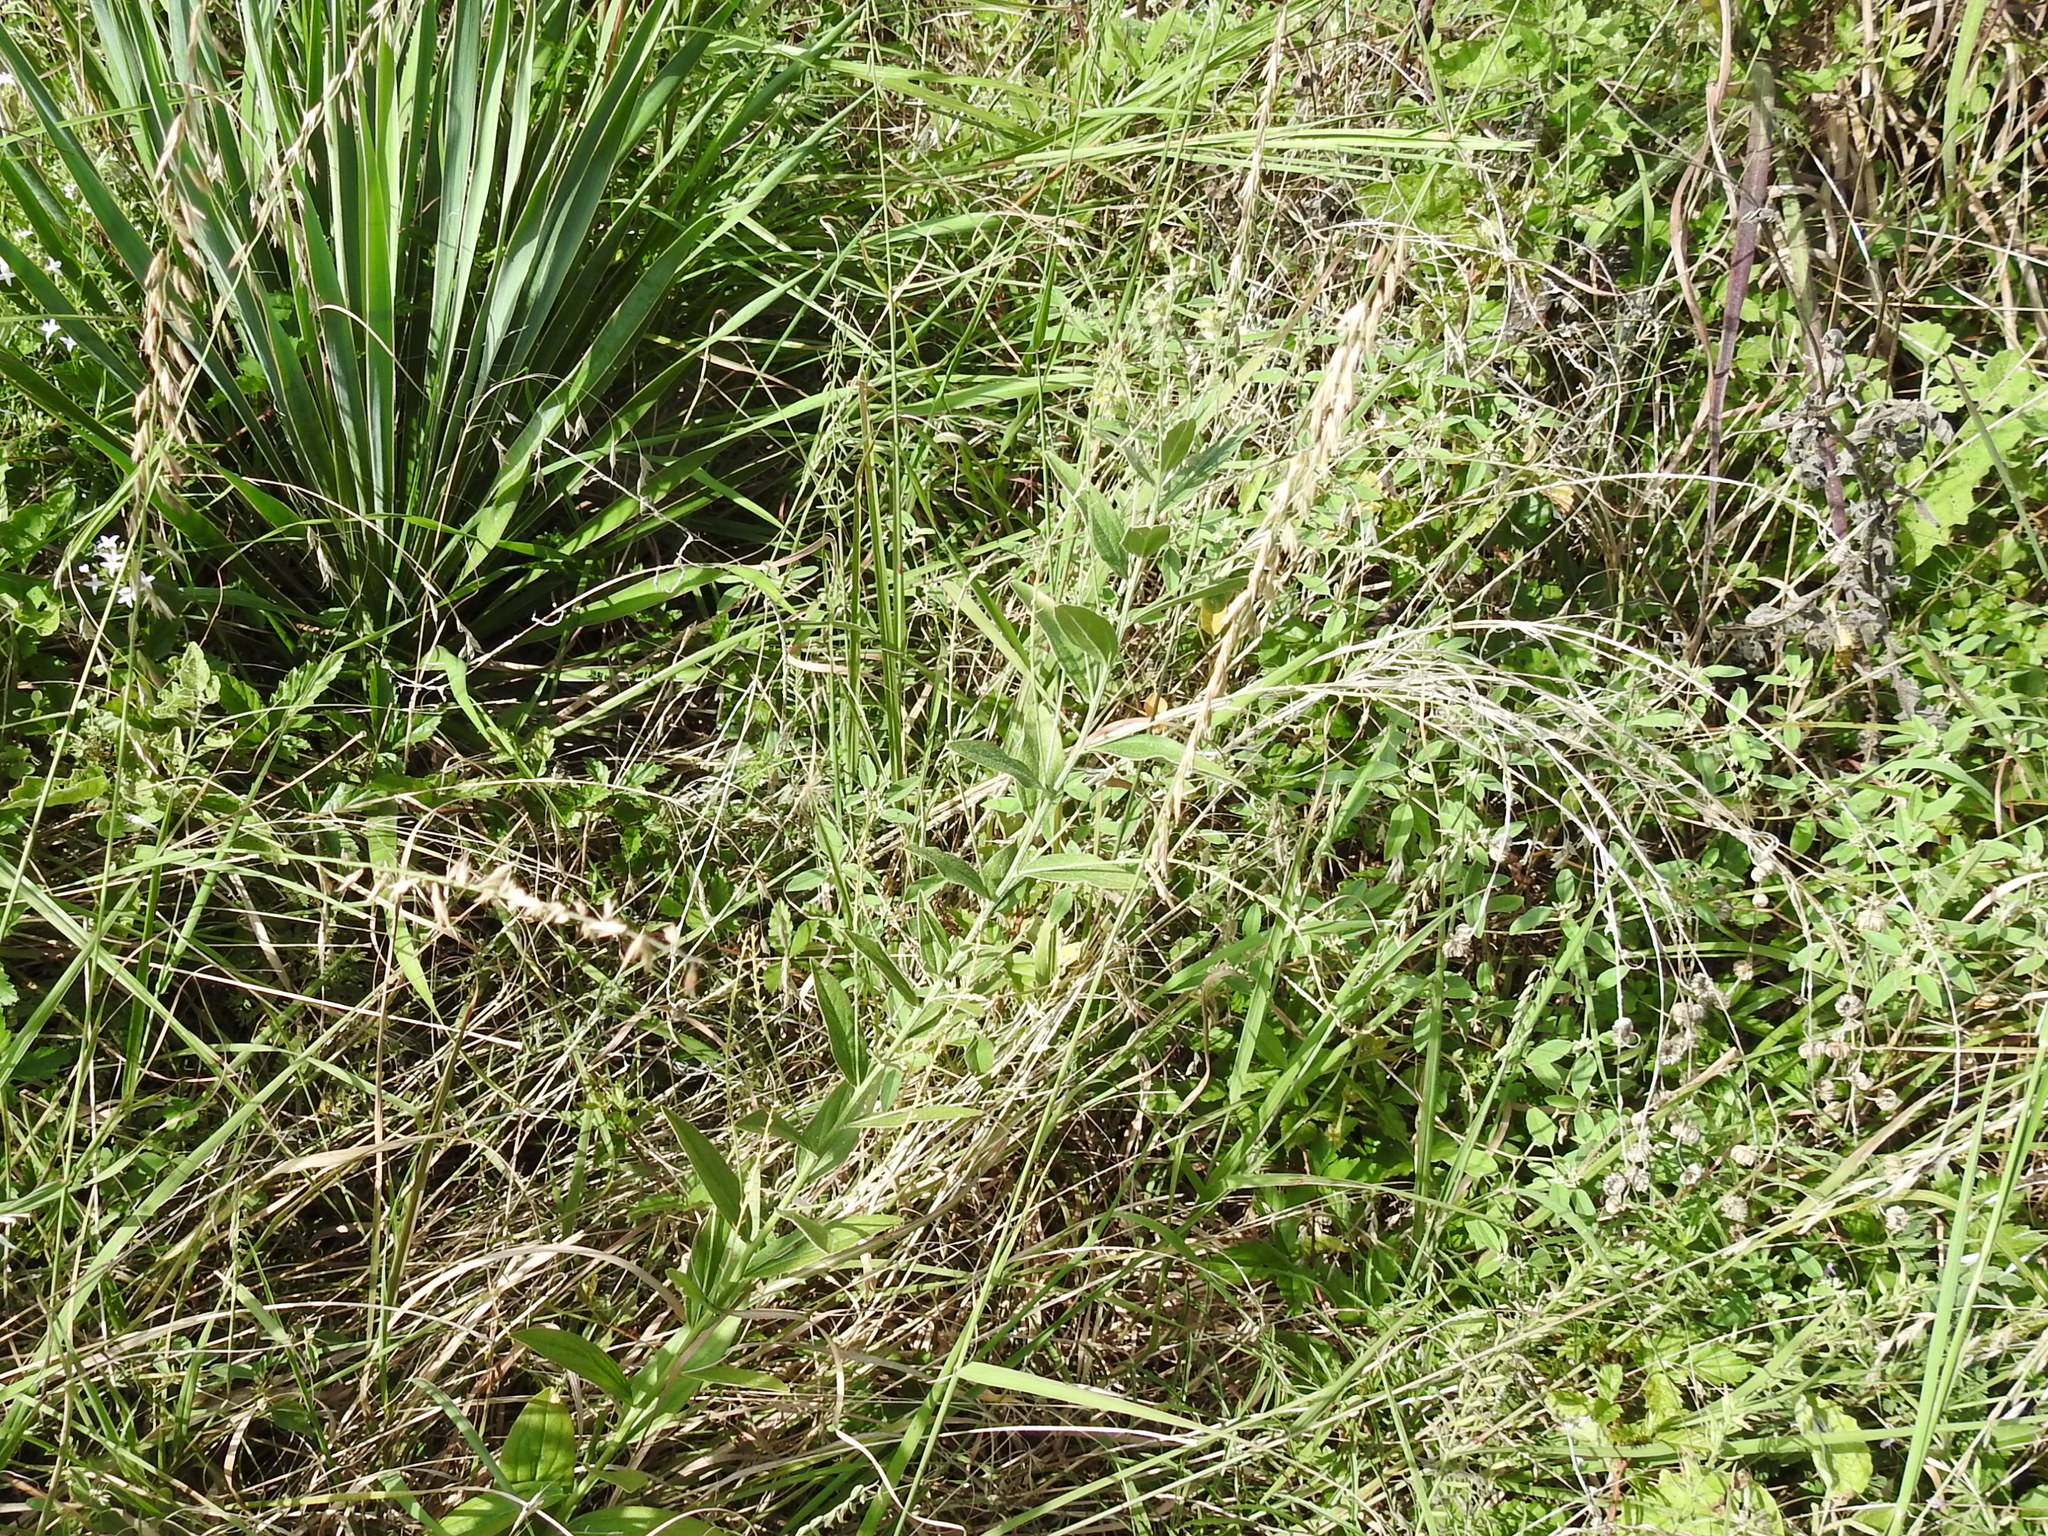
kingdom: Plantae
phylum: Tracheophyta
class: Magnoliopsida
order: Malpighiales
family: Euphorbiaceae
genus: Ditaxis
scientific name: Ditaxis mercurialina
